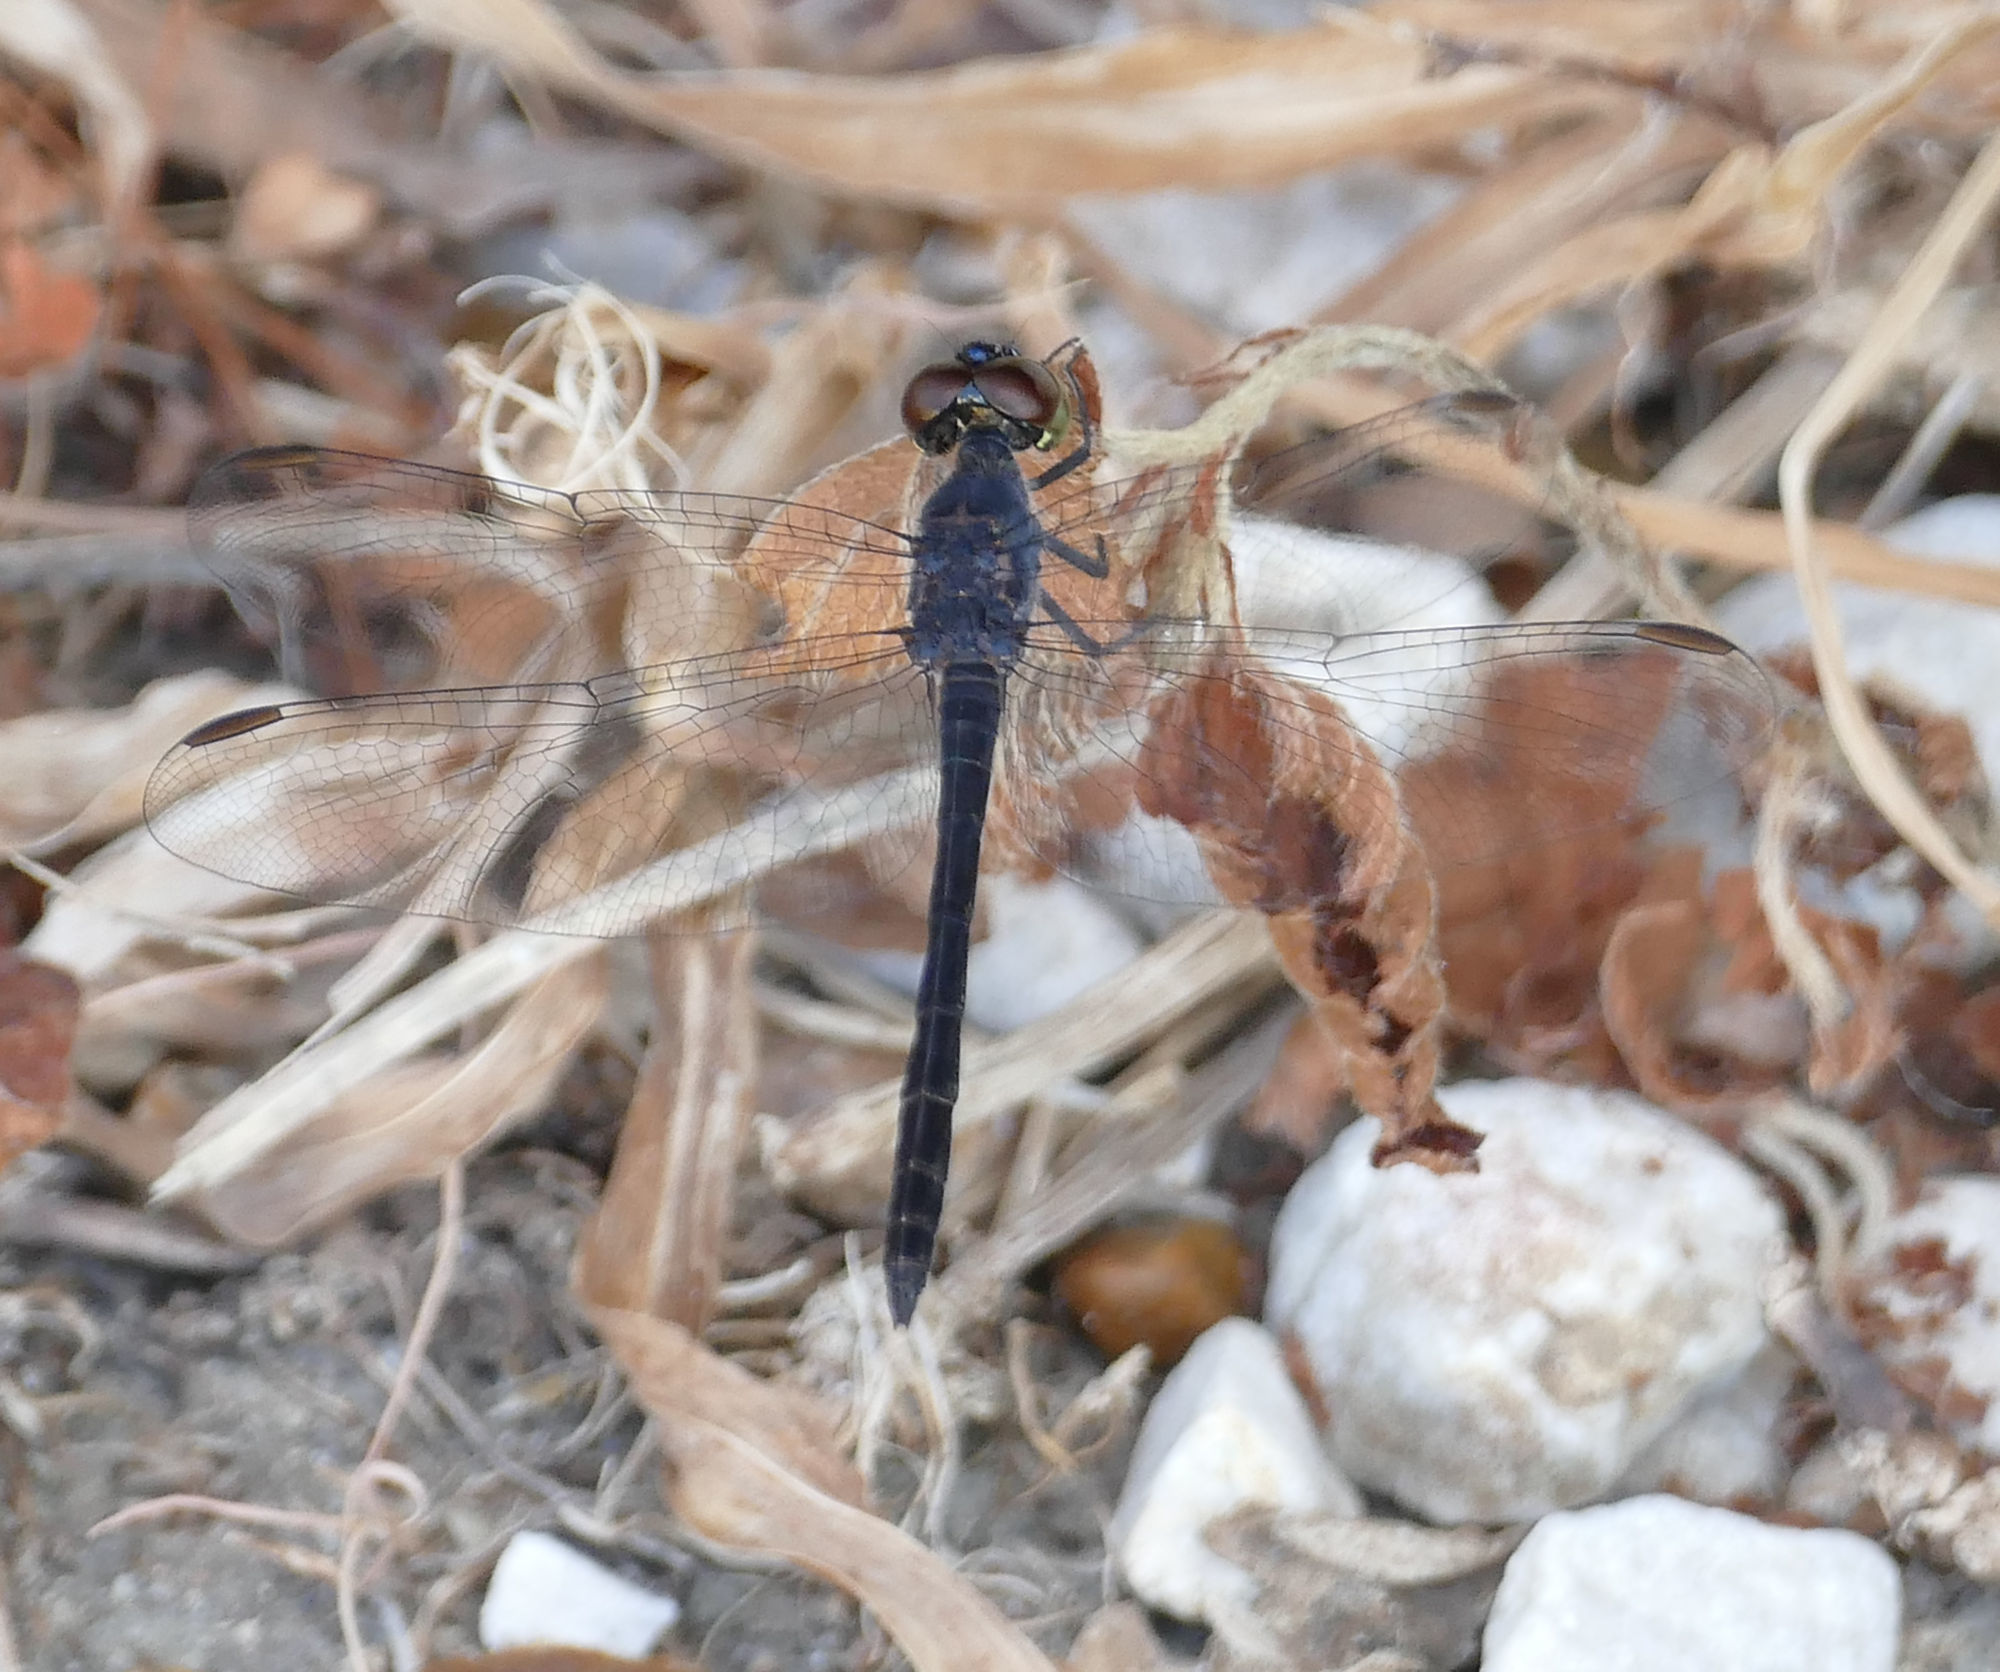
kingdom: Animalia
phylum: Arthropoda
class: Insecta
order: Odonata
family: Libellulidae
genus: Erythrodiplax
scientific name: Erythrodiplax berenice
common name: Seaside dragonlet
